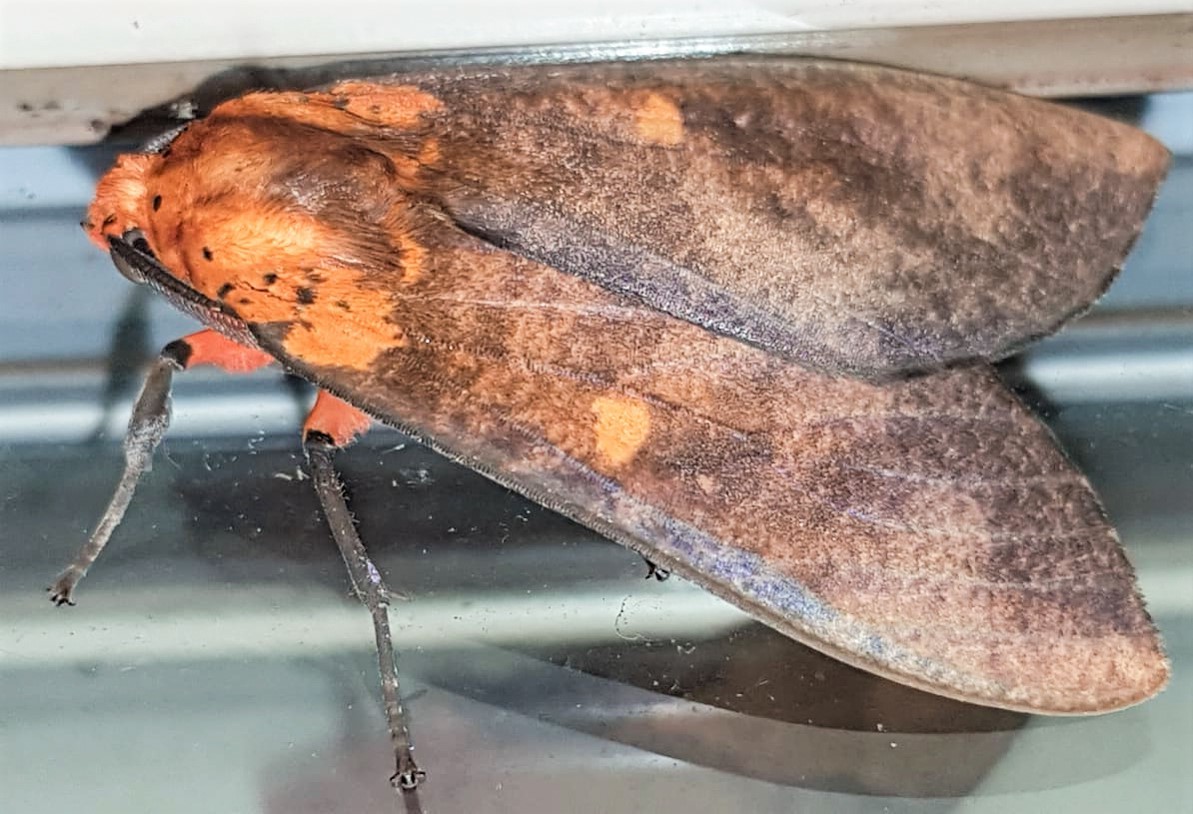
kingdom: Animalia
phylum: Arthropoda
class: Insecta
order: Lepidoptera
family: Erebidae
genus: Ammalo
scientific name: Ammalo helops
